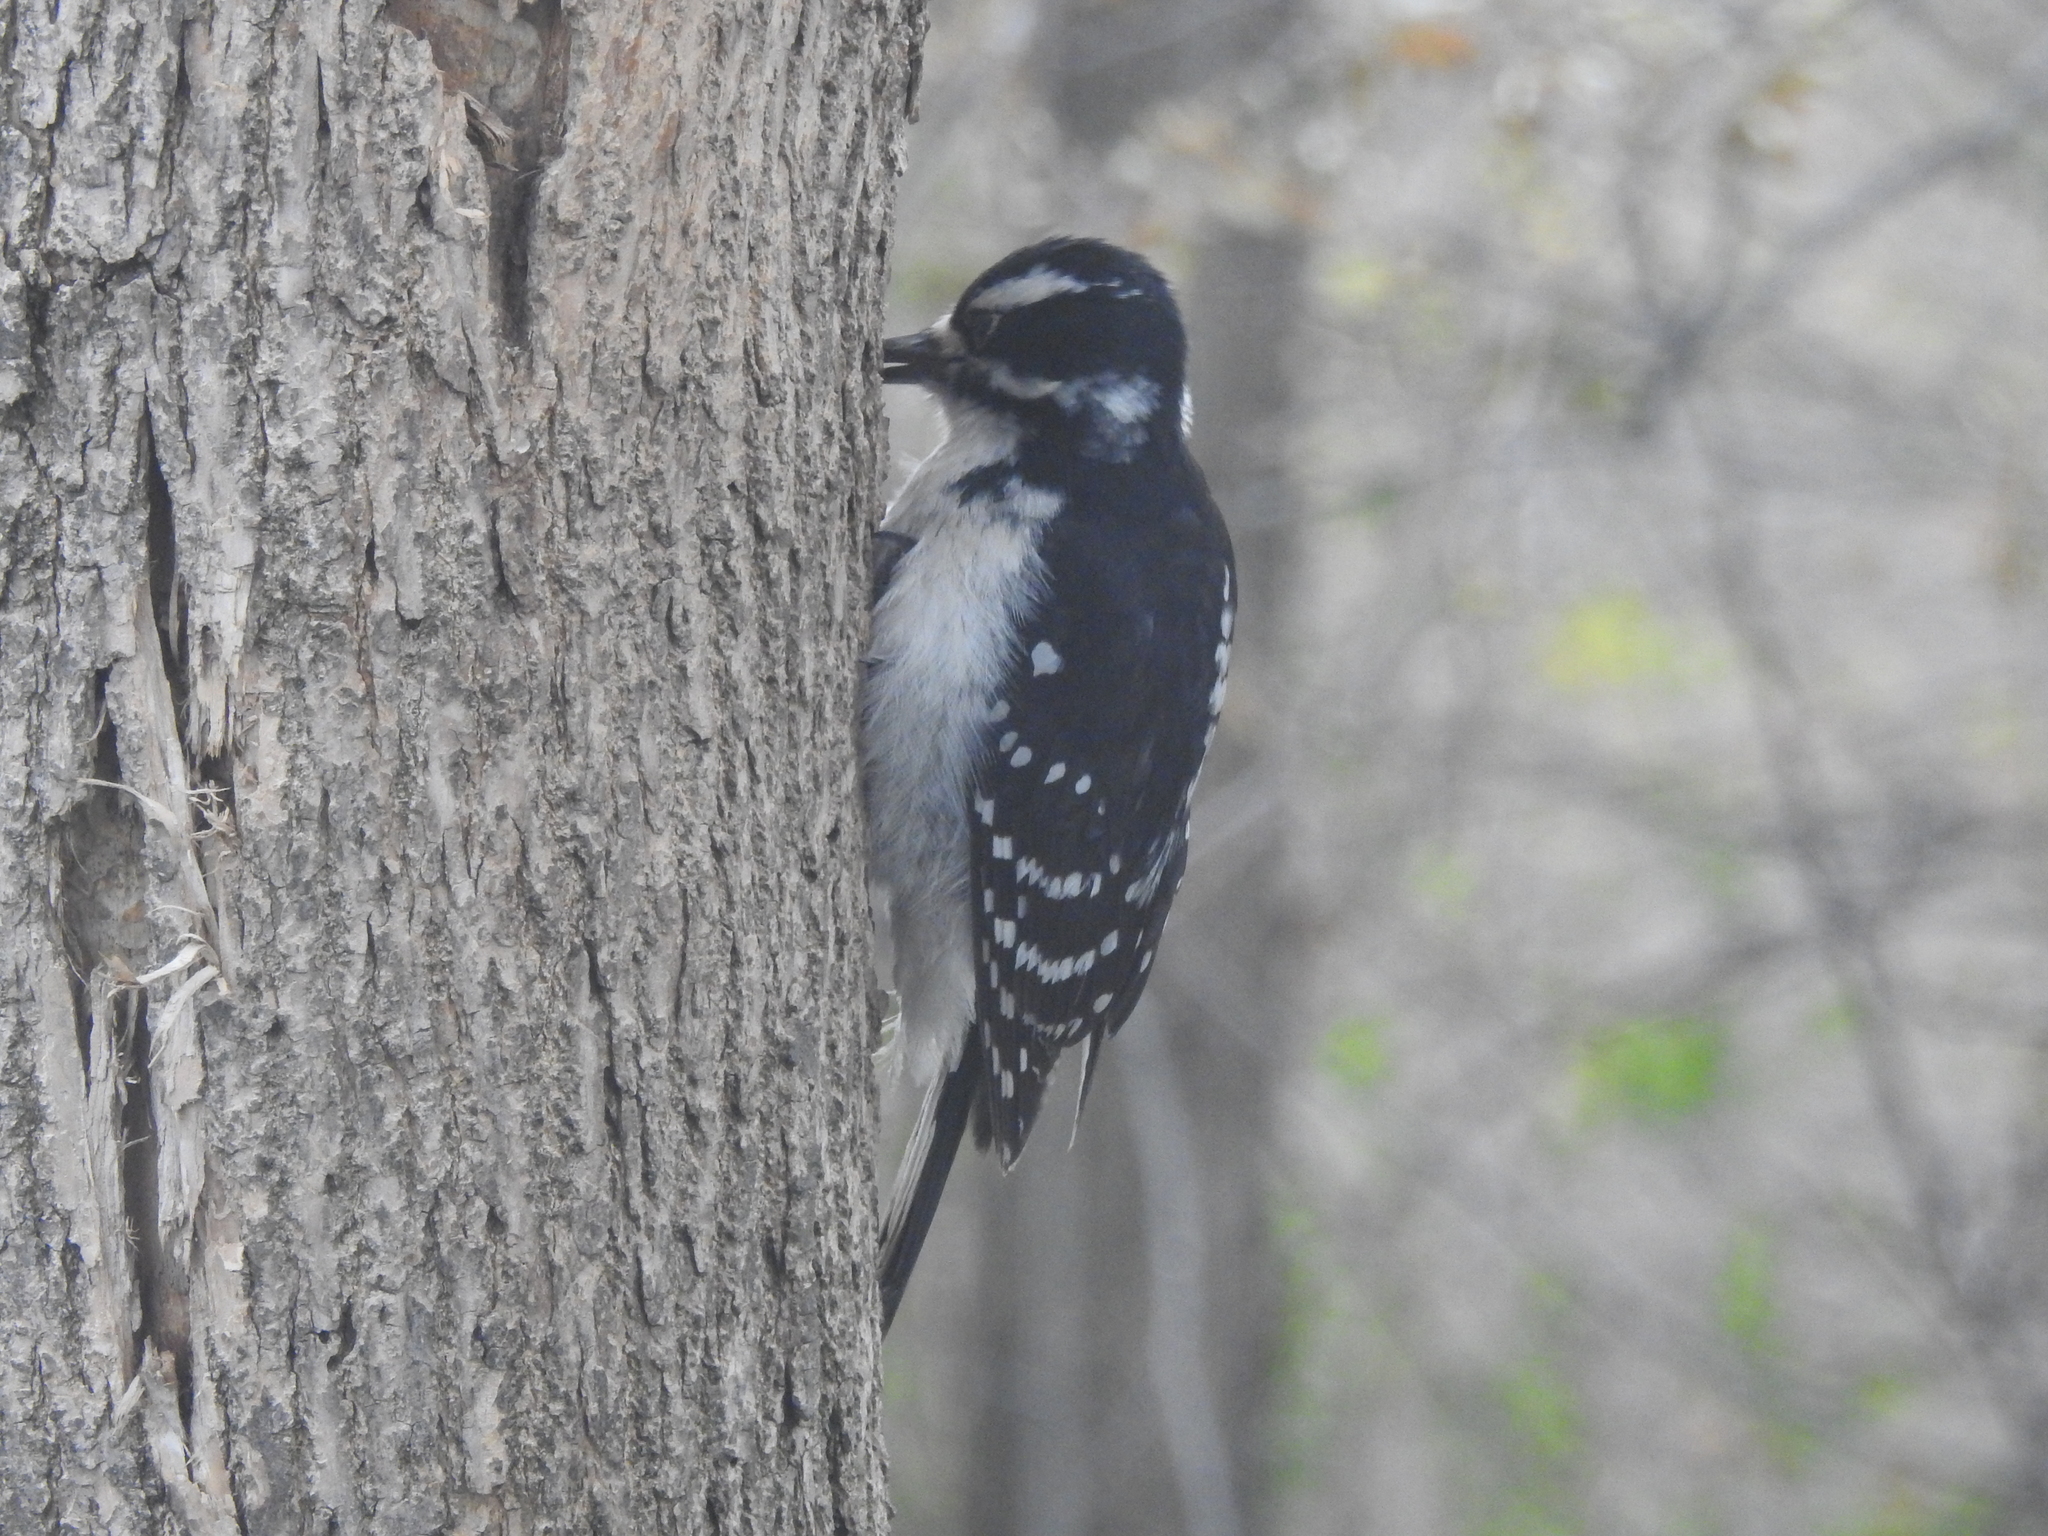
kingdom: Animalia
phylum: Chordata
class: Aves
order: Piciformes
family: Picidae
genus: Leuconotopicus
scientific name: Leuconotopicus villosus
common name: Hairy woodpecker
